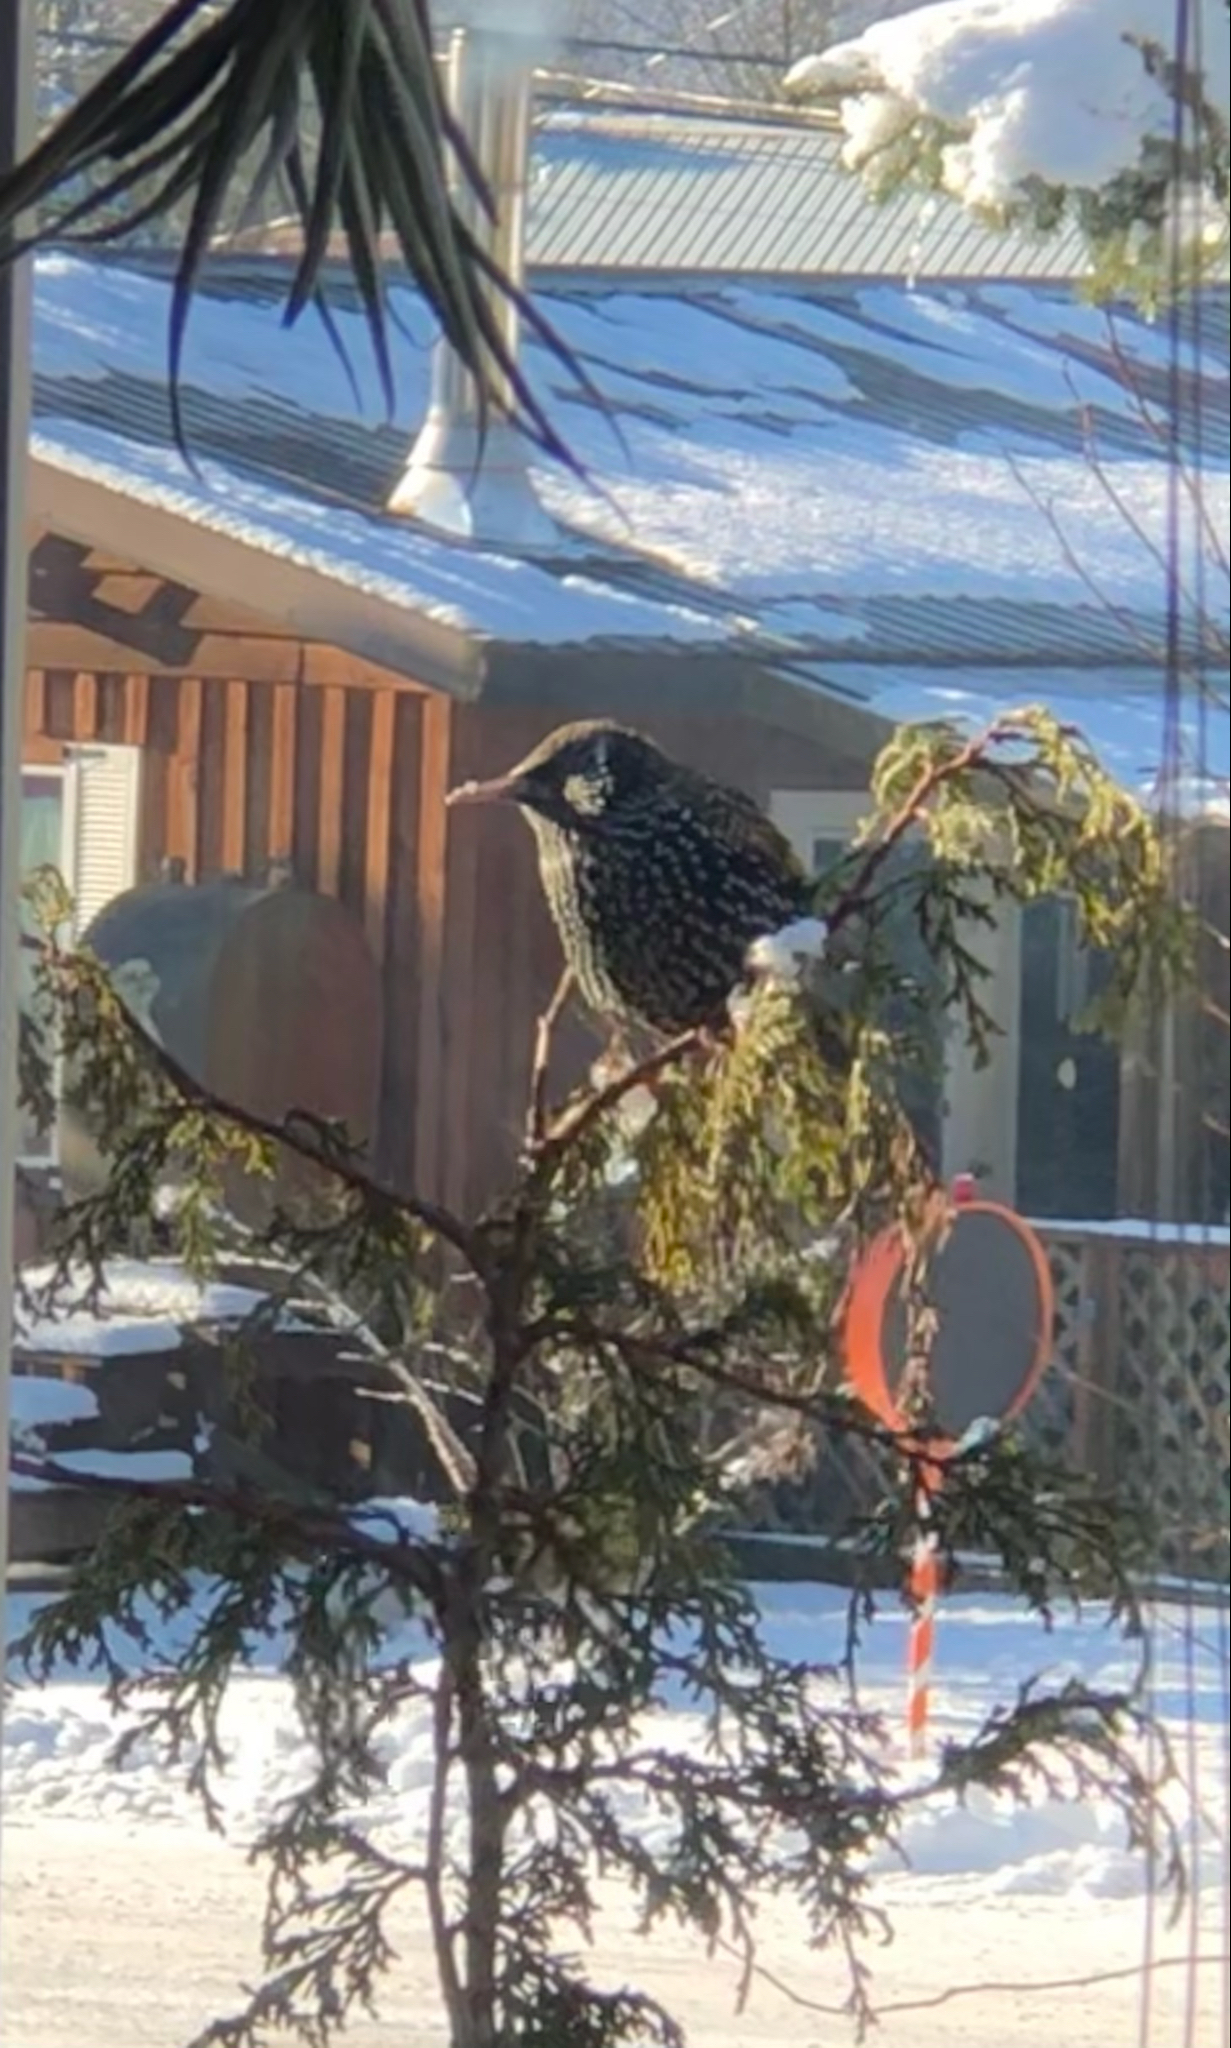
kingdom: Animalia
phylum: Chordata
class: Aves
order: Passeriformes
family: Sturnidae
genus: Sturnus
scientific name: Sturnus vulgaris
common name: Common starling
